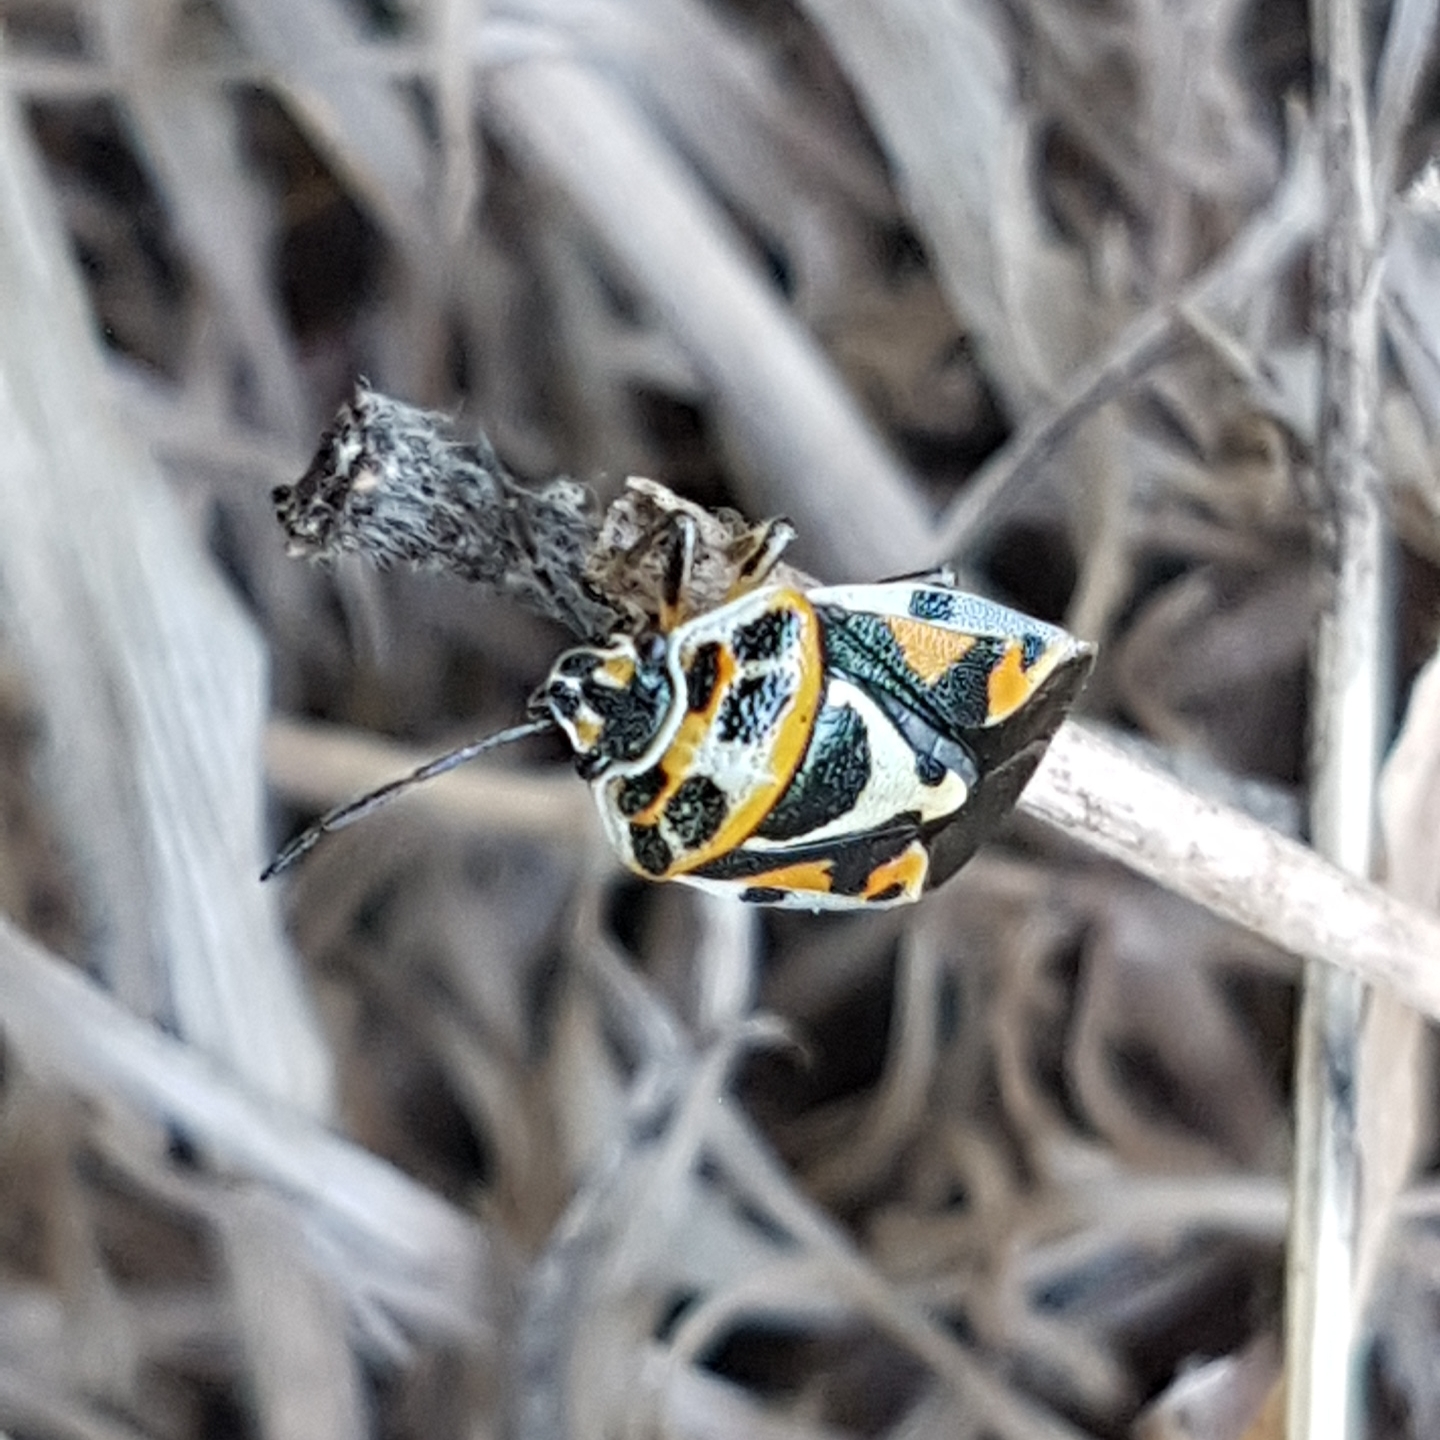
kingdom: Animalia
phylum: Arthropoda
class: Insecta
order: Hemiptera
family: Pentatomidae
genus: Eurydema
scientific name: Eurydema ornata
